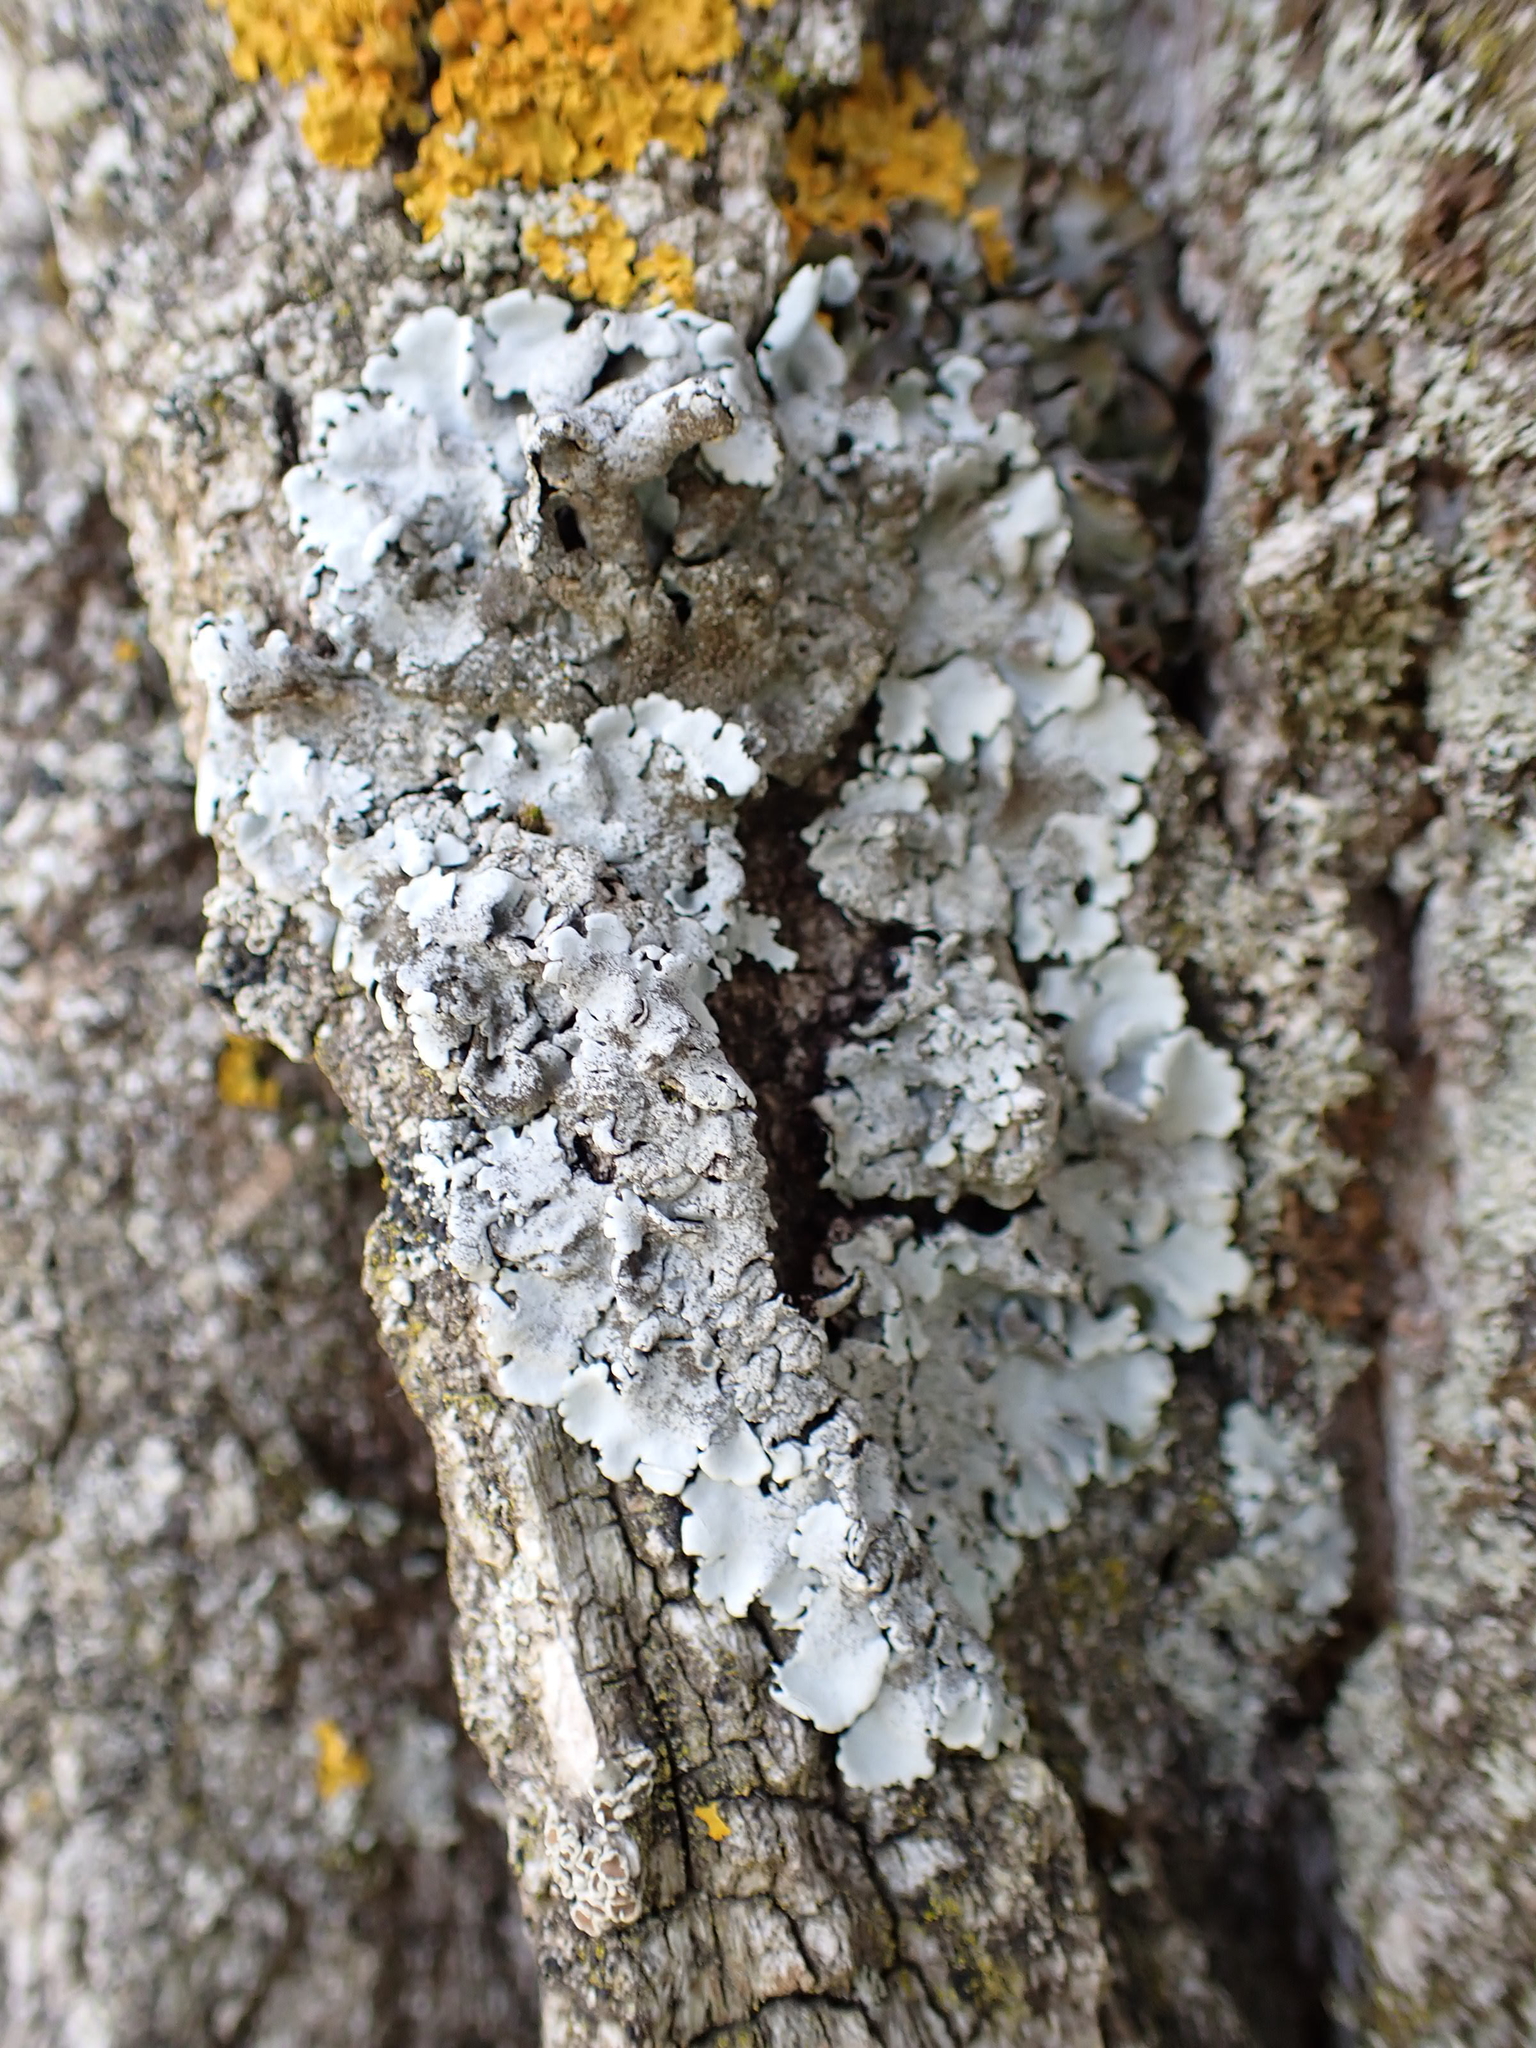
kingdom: Fungi
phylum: Ascomycota
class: Lecanoromycetes
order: Lecanorales
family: Parmeliaceae
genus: Parmelina
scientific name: Parmelina tiliacea
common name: Linden shield lichen
